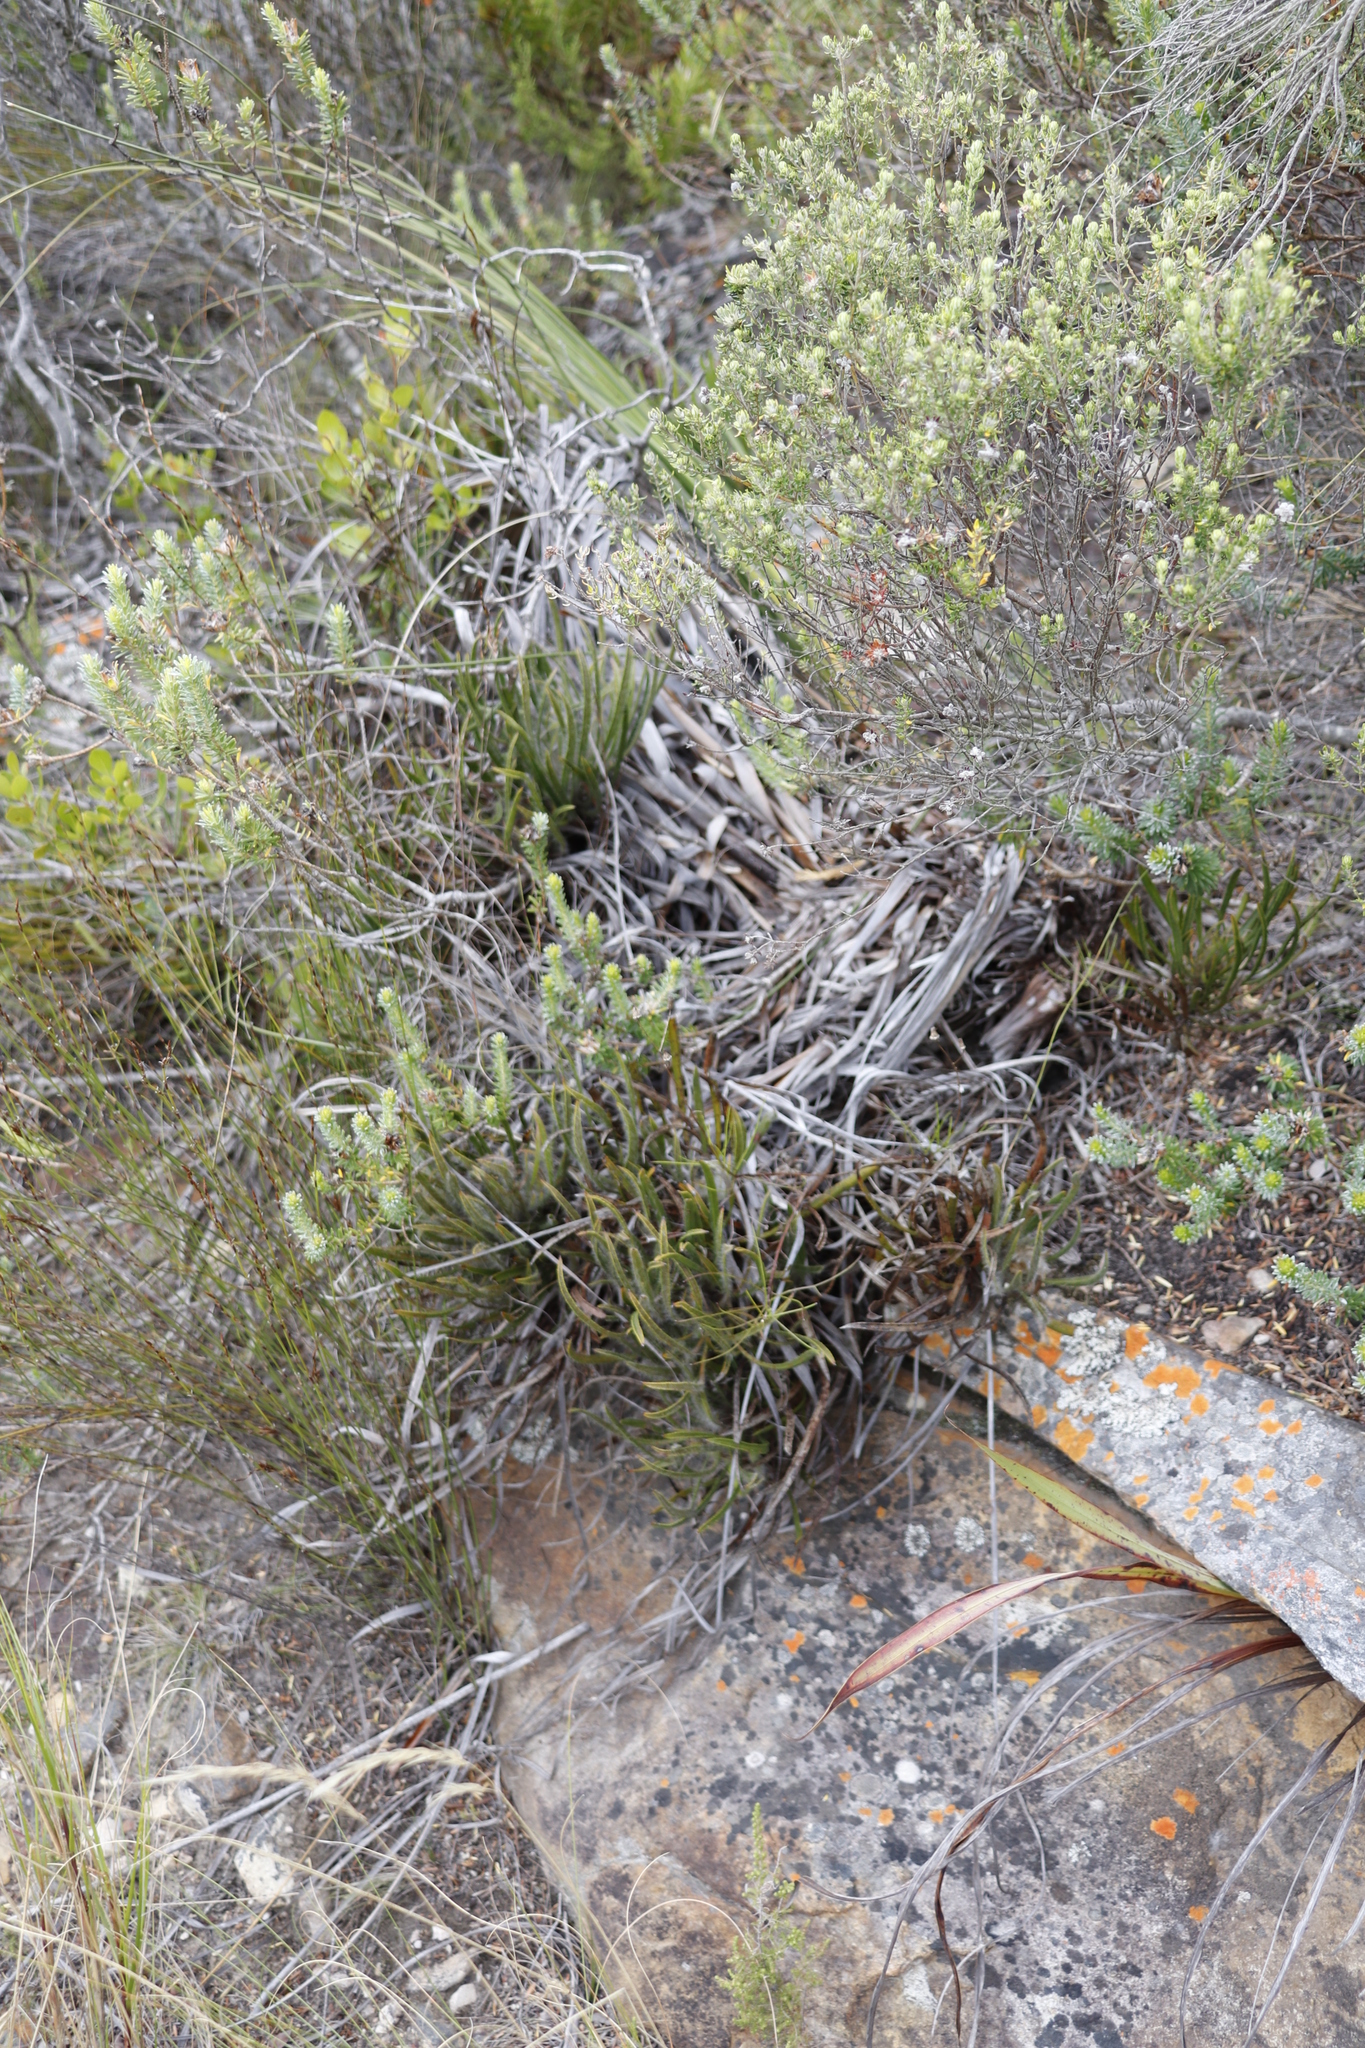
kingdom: Plantae
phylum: Tracheophyta
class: Magnoliopsida
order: Proteales
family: Proteaceae
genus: Protea
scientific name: Protea denticulata
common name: Tooth-leaf sugarbush
